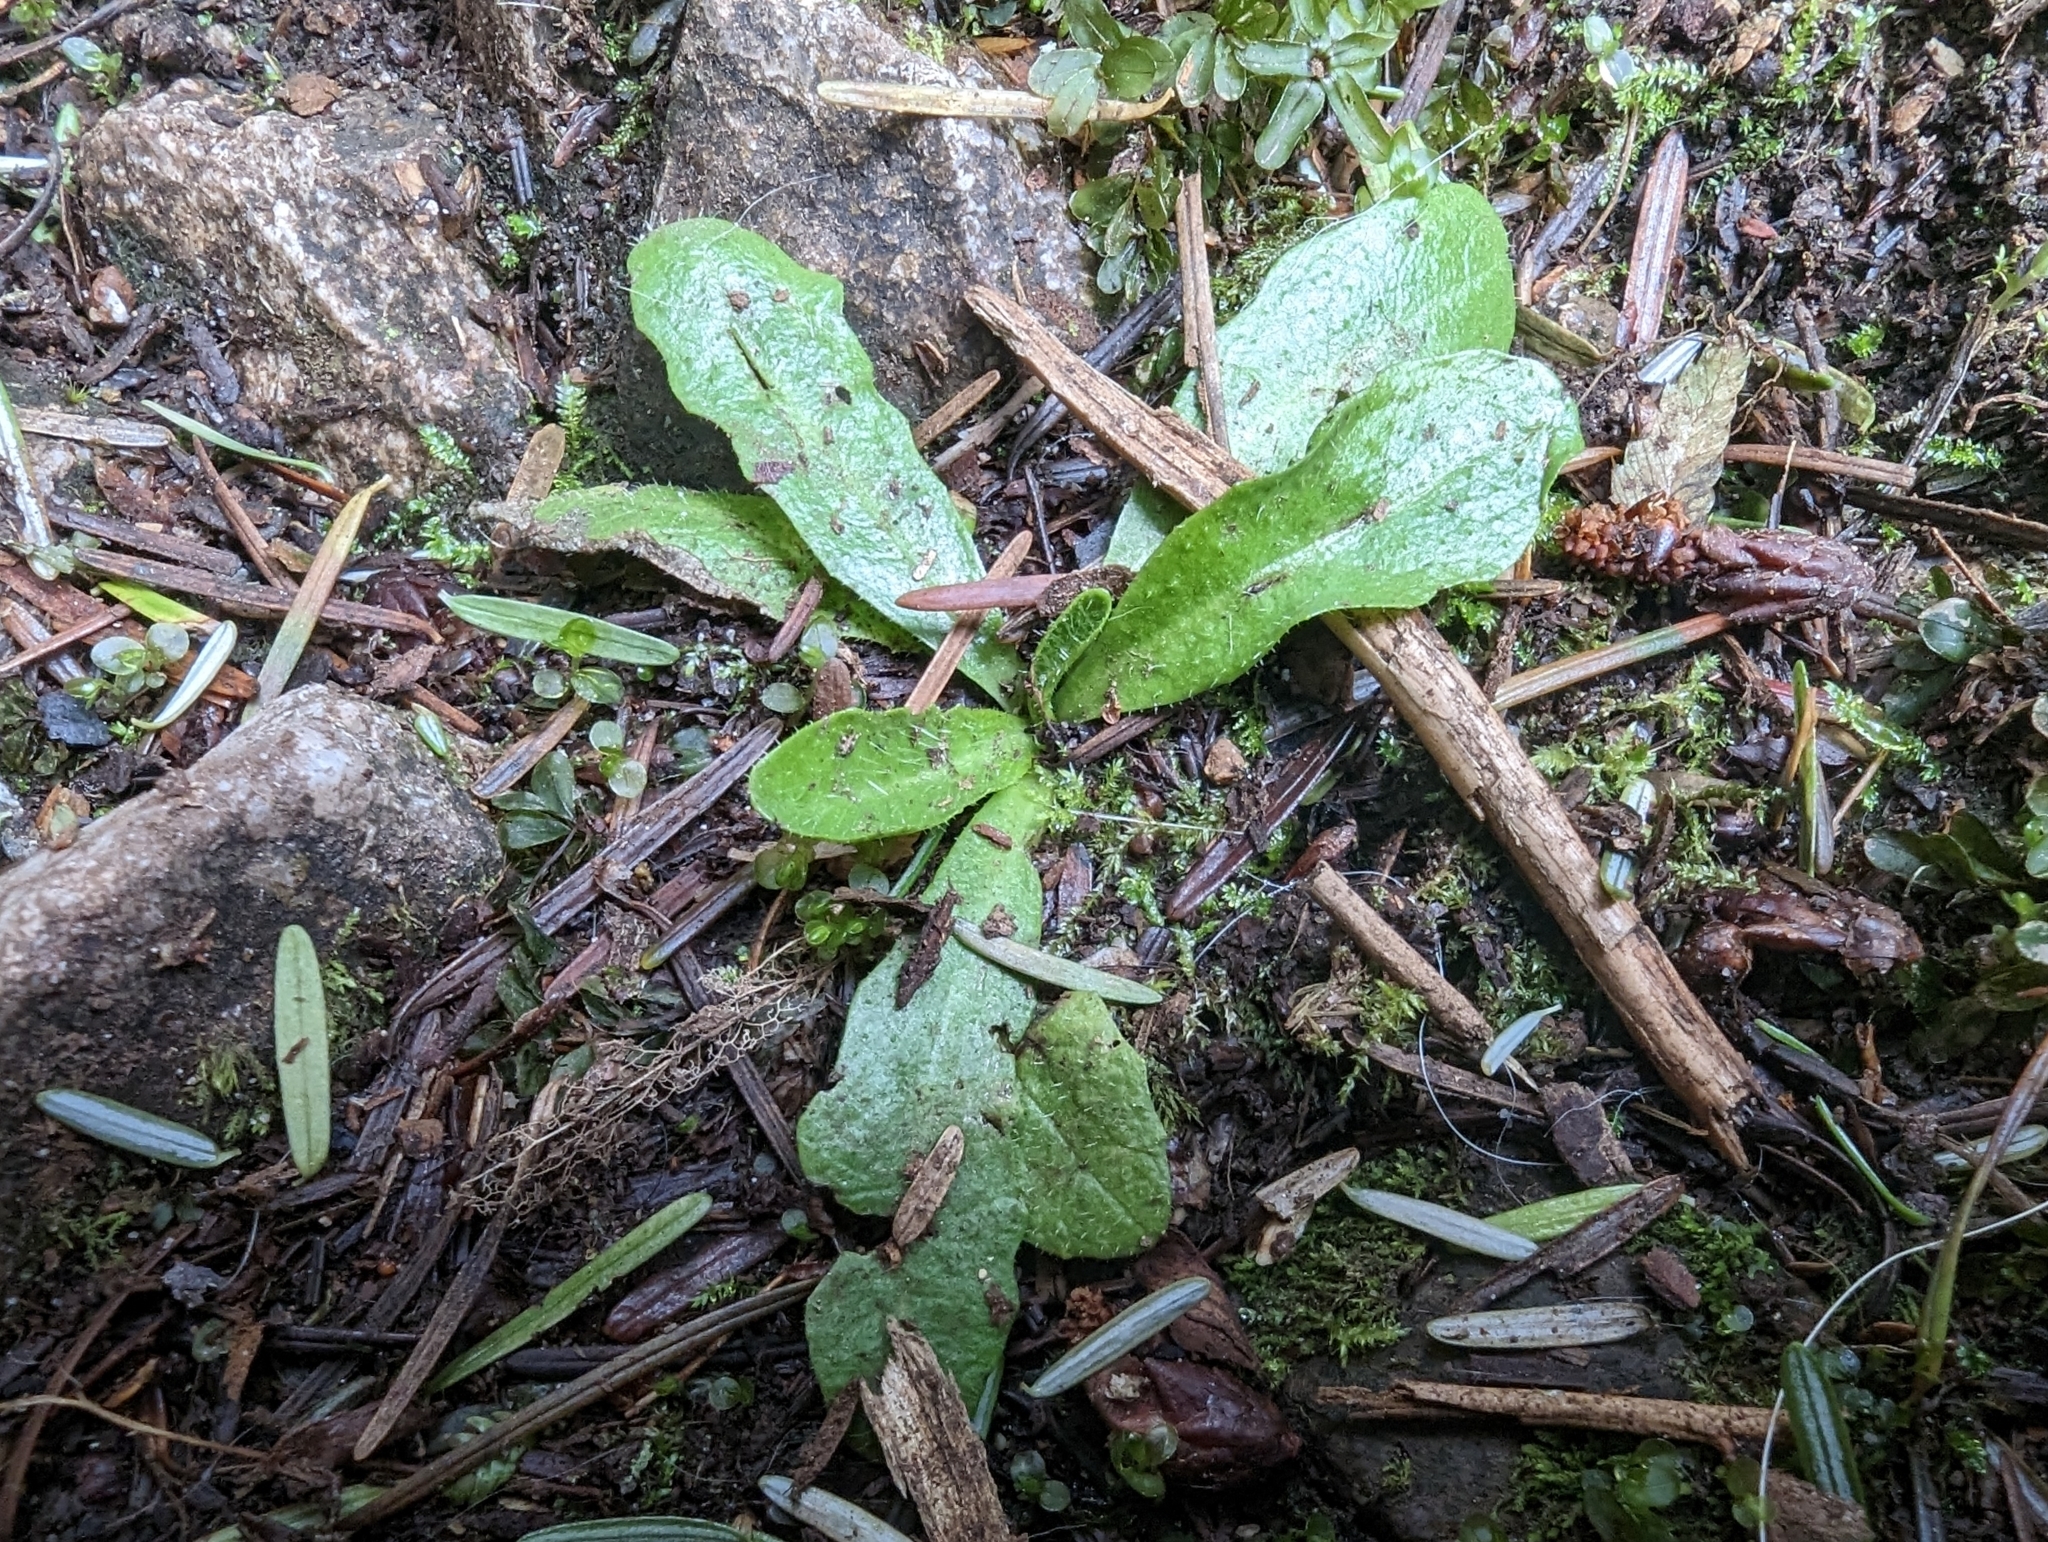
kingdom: Plantae
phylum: Tracheophyta
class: Magnoliopsida
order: Asterales
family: Asteraceae
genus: Hypochaeris
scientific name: Hypochaeris radicata
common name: Flatweed
